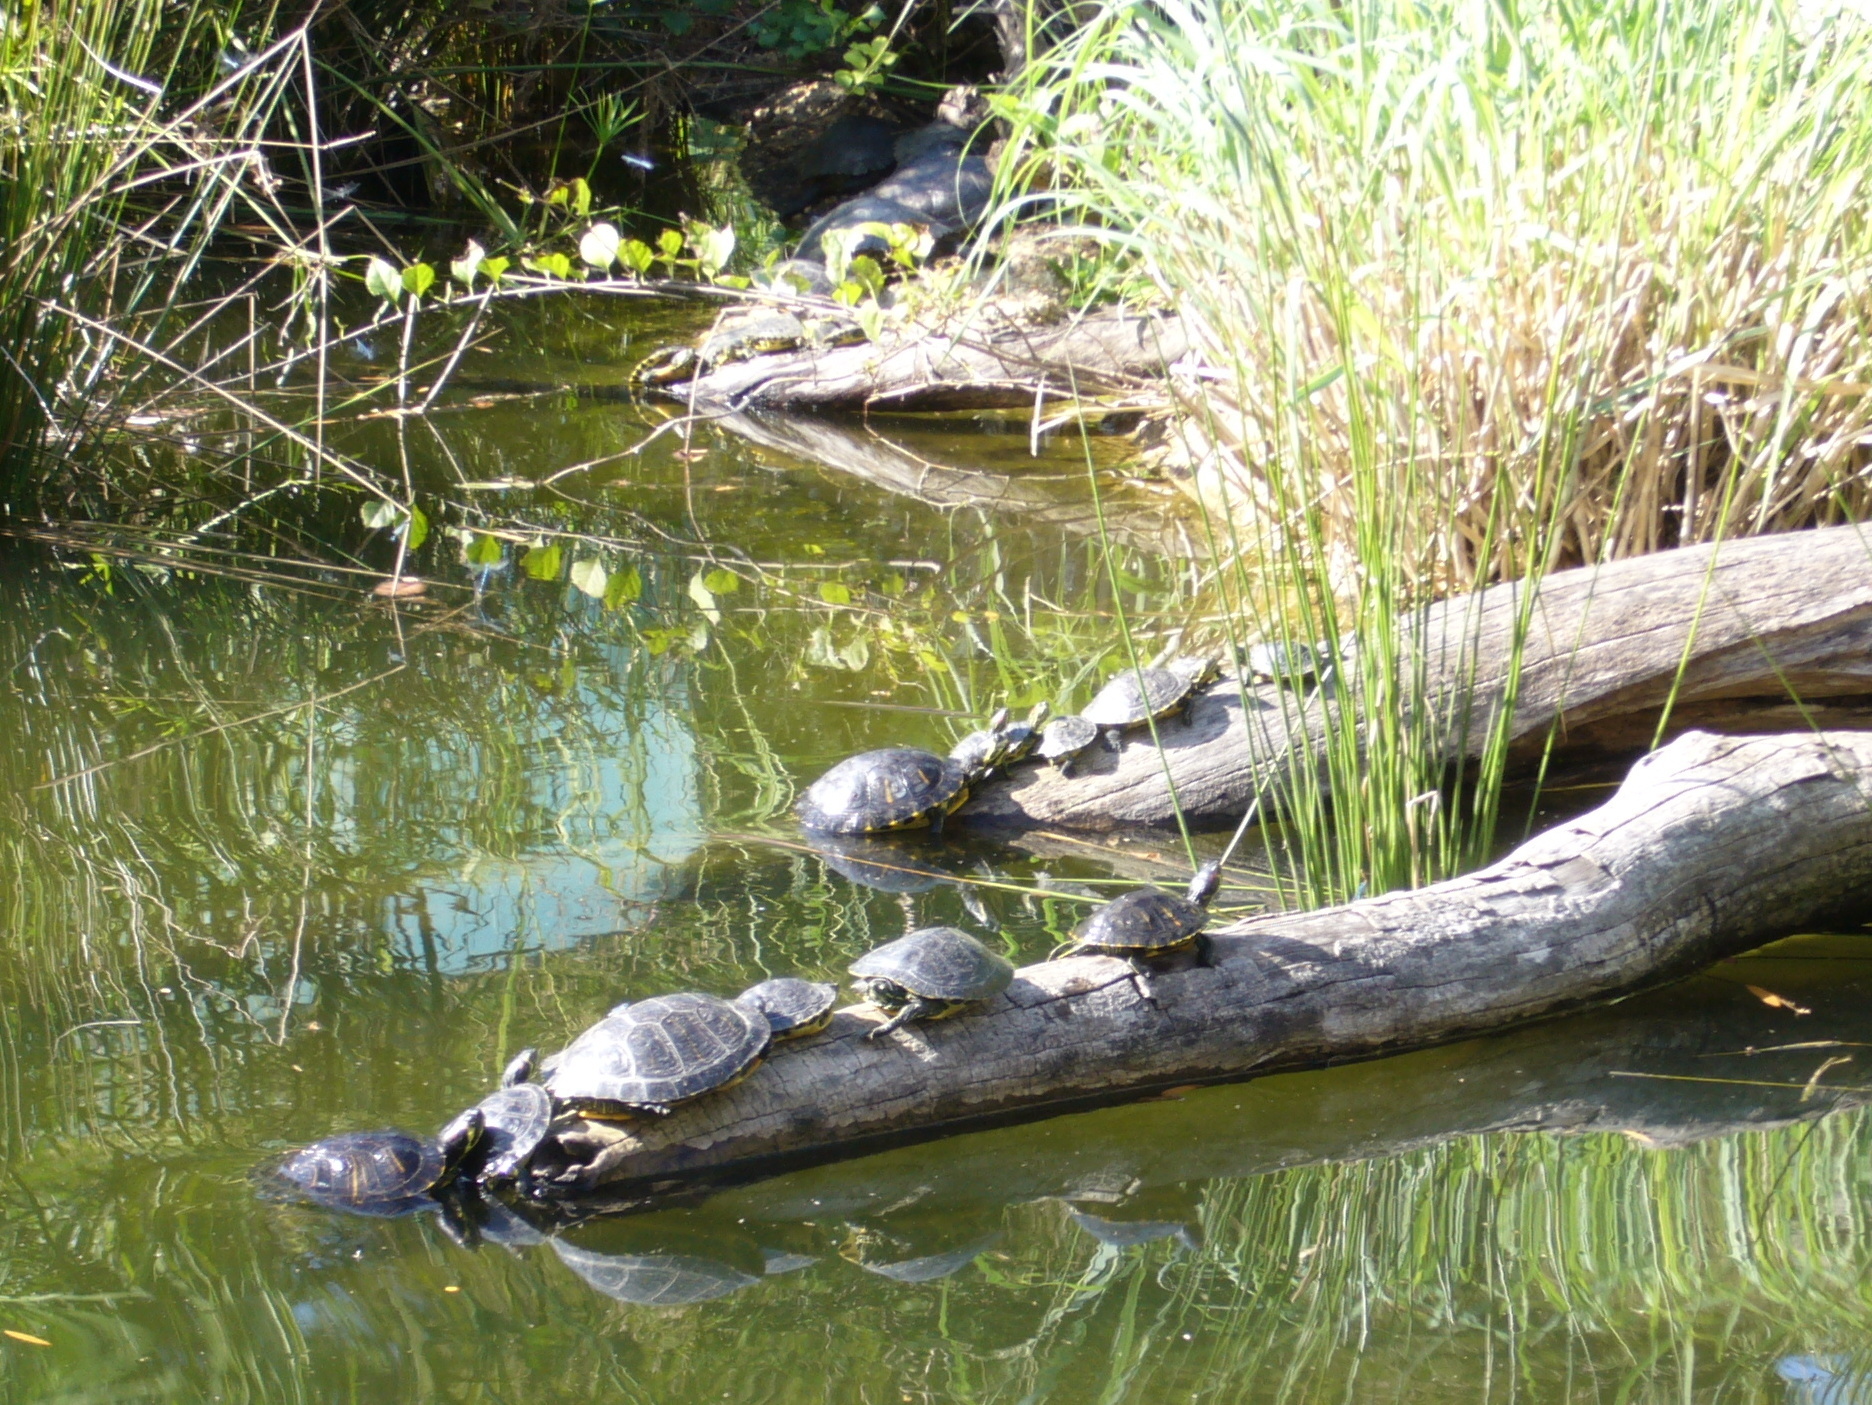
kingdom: Animalia
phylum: Chordata
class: Testudines
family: Emydidae
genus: Trachemys
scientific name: Trachemys scripta
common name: Slider
